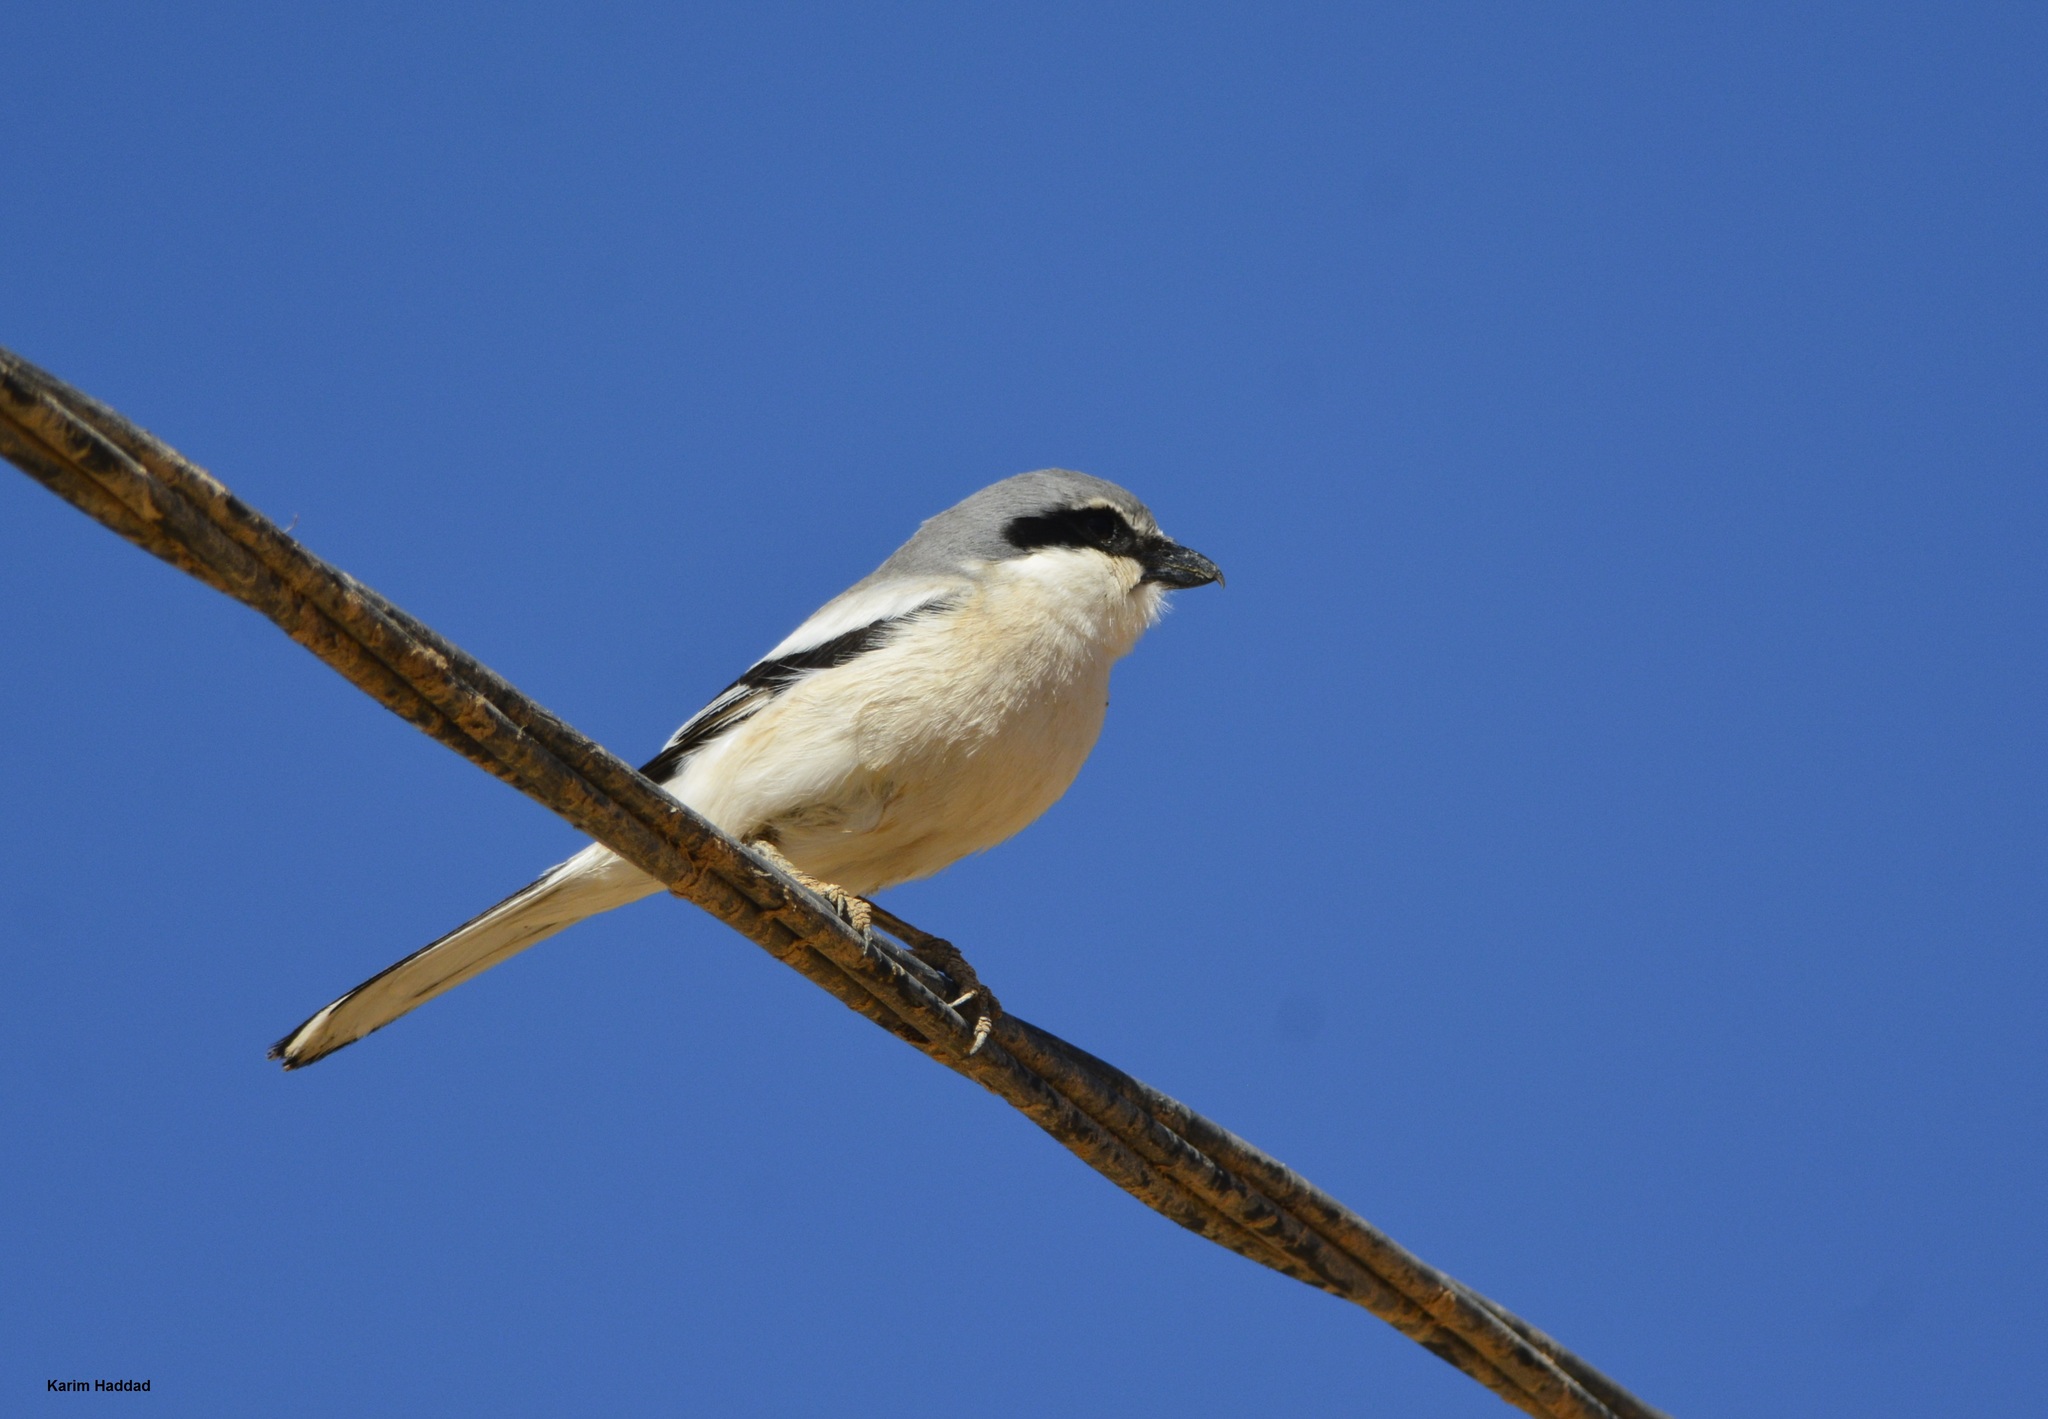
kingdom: Animalia
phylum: Chordata
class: Aves
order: Passeriformes
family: Laniidae
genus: Lanius
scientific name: Lanius excubitor
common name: Great grey shrike
